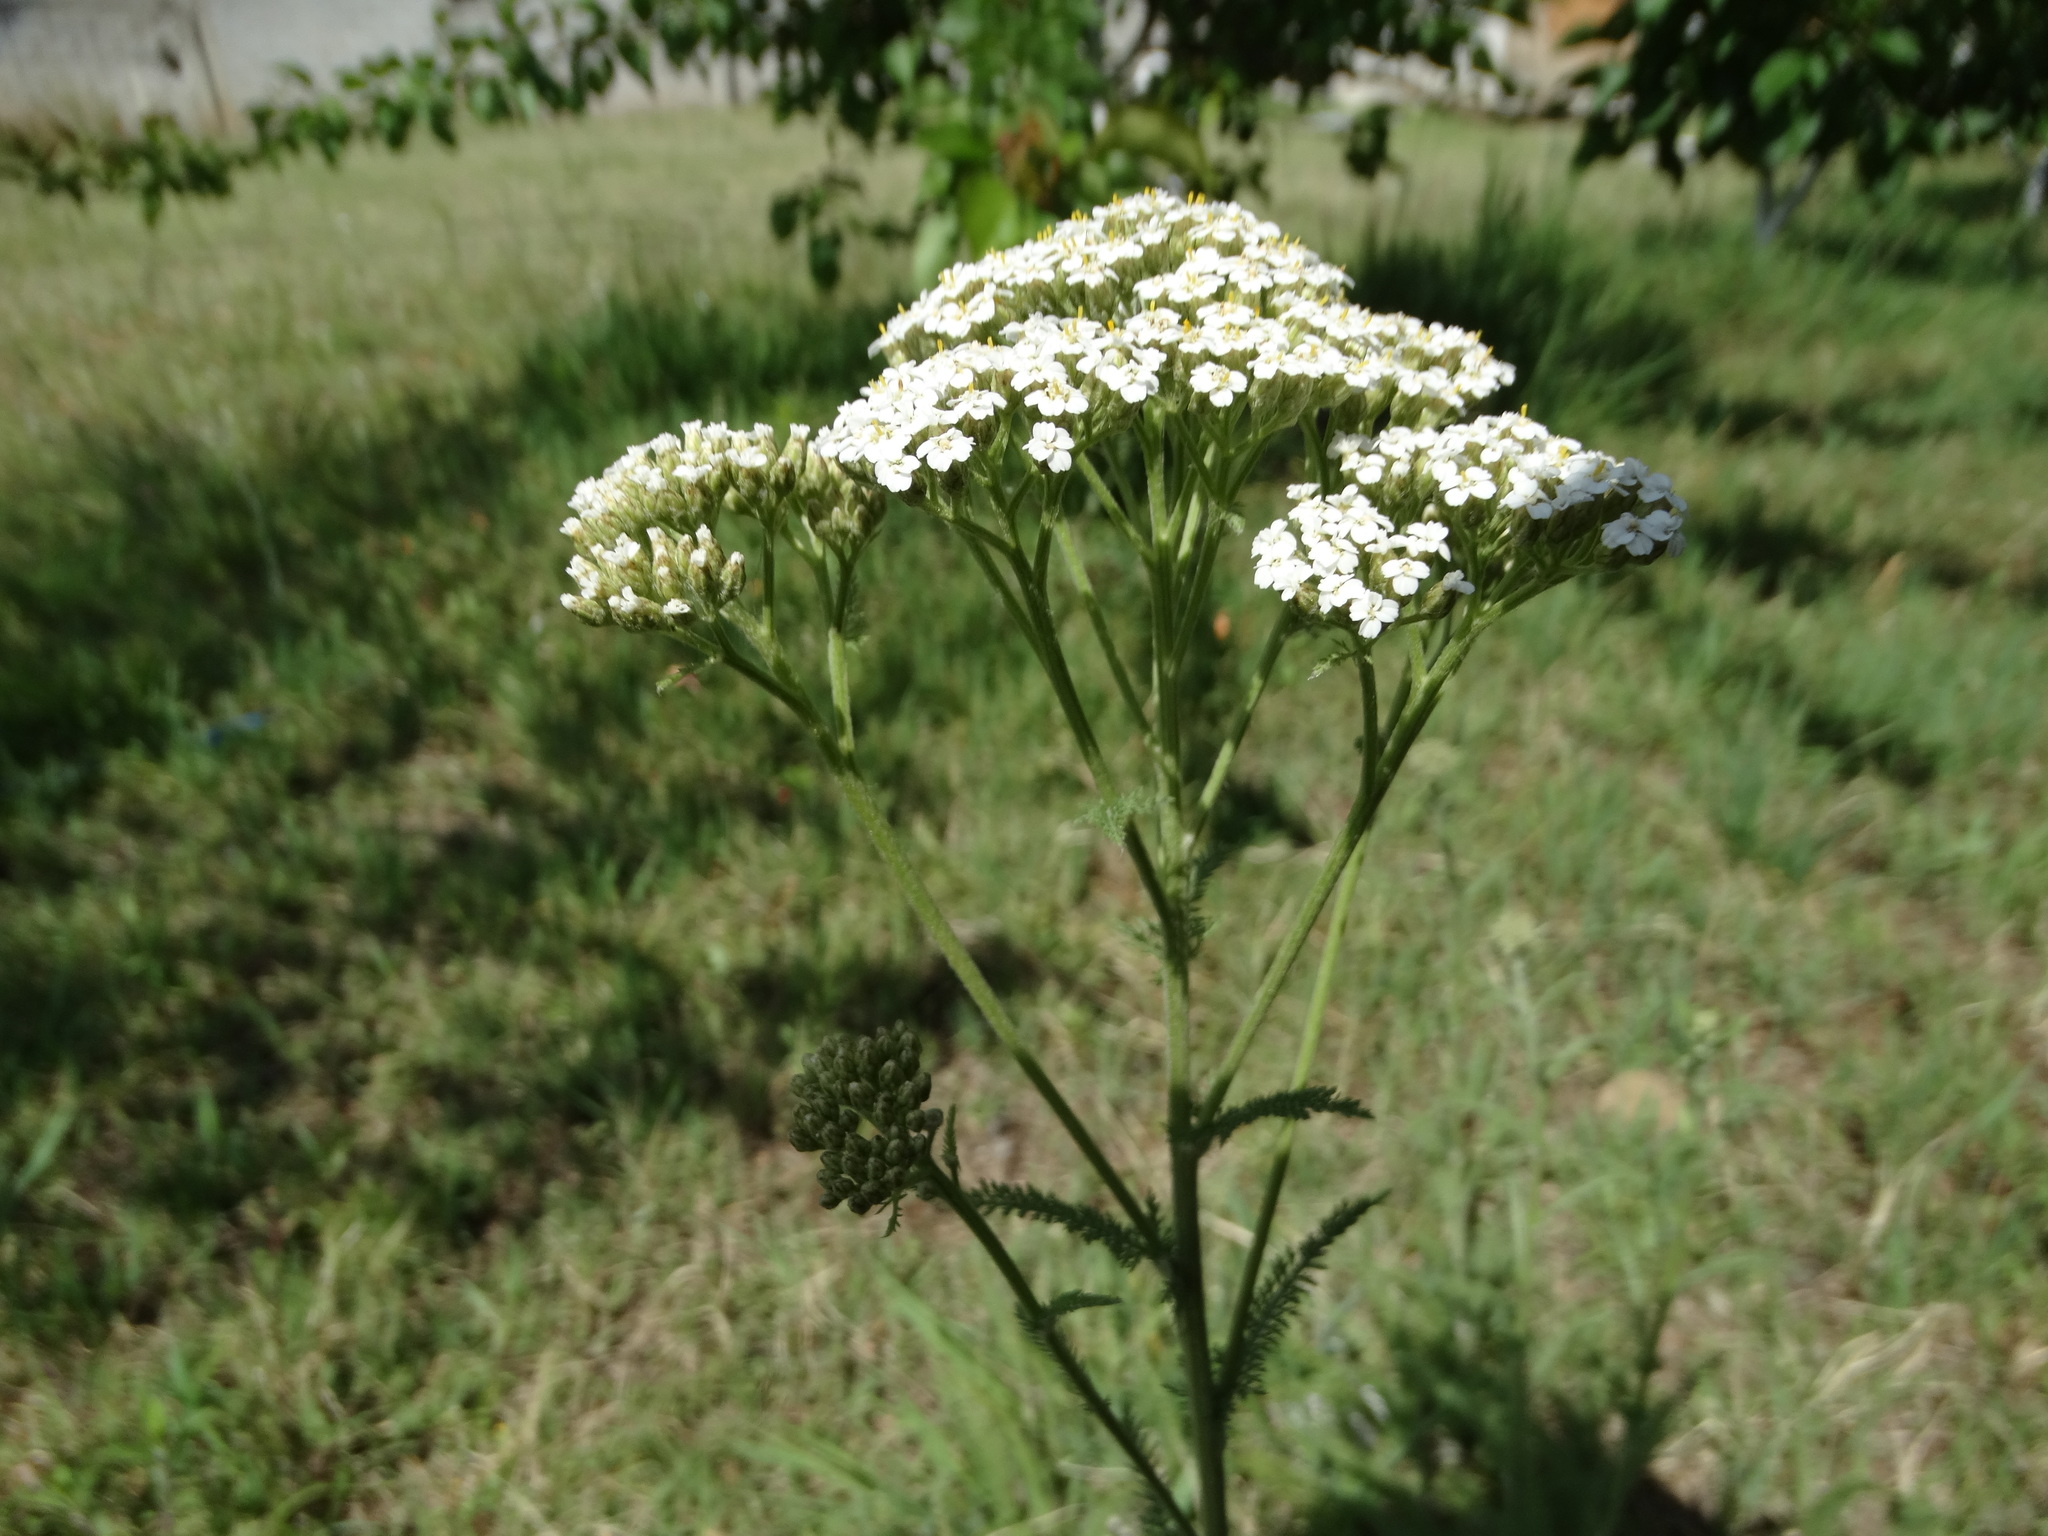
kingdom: Plantae
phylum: Tracheophyta
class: Magnoliopsida
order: Asterales
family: Asteraceae
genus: Achillea
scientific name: Achillea millefolium
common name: Yarrow
